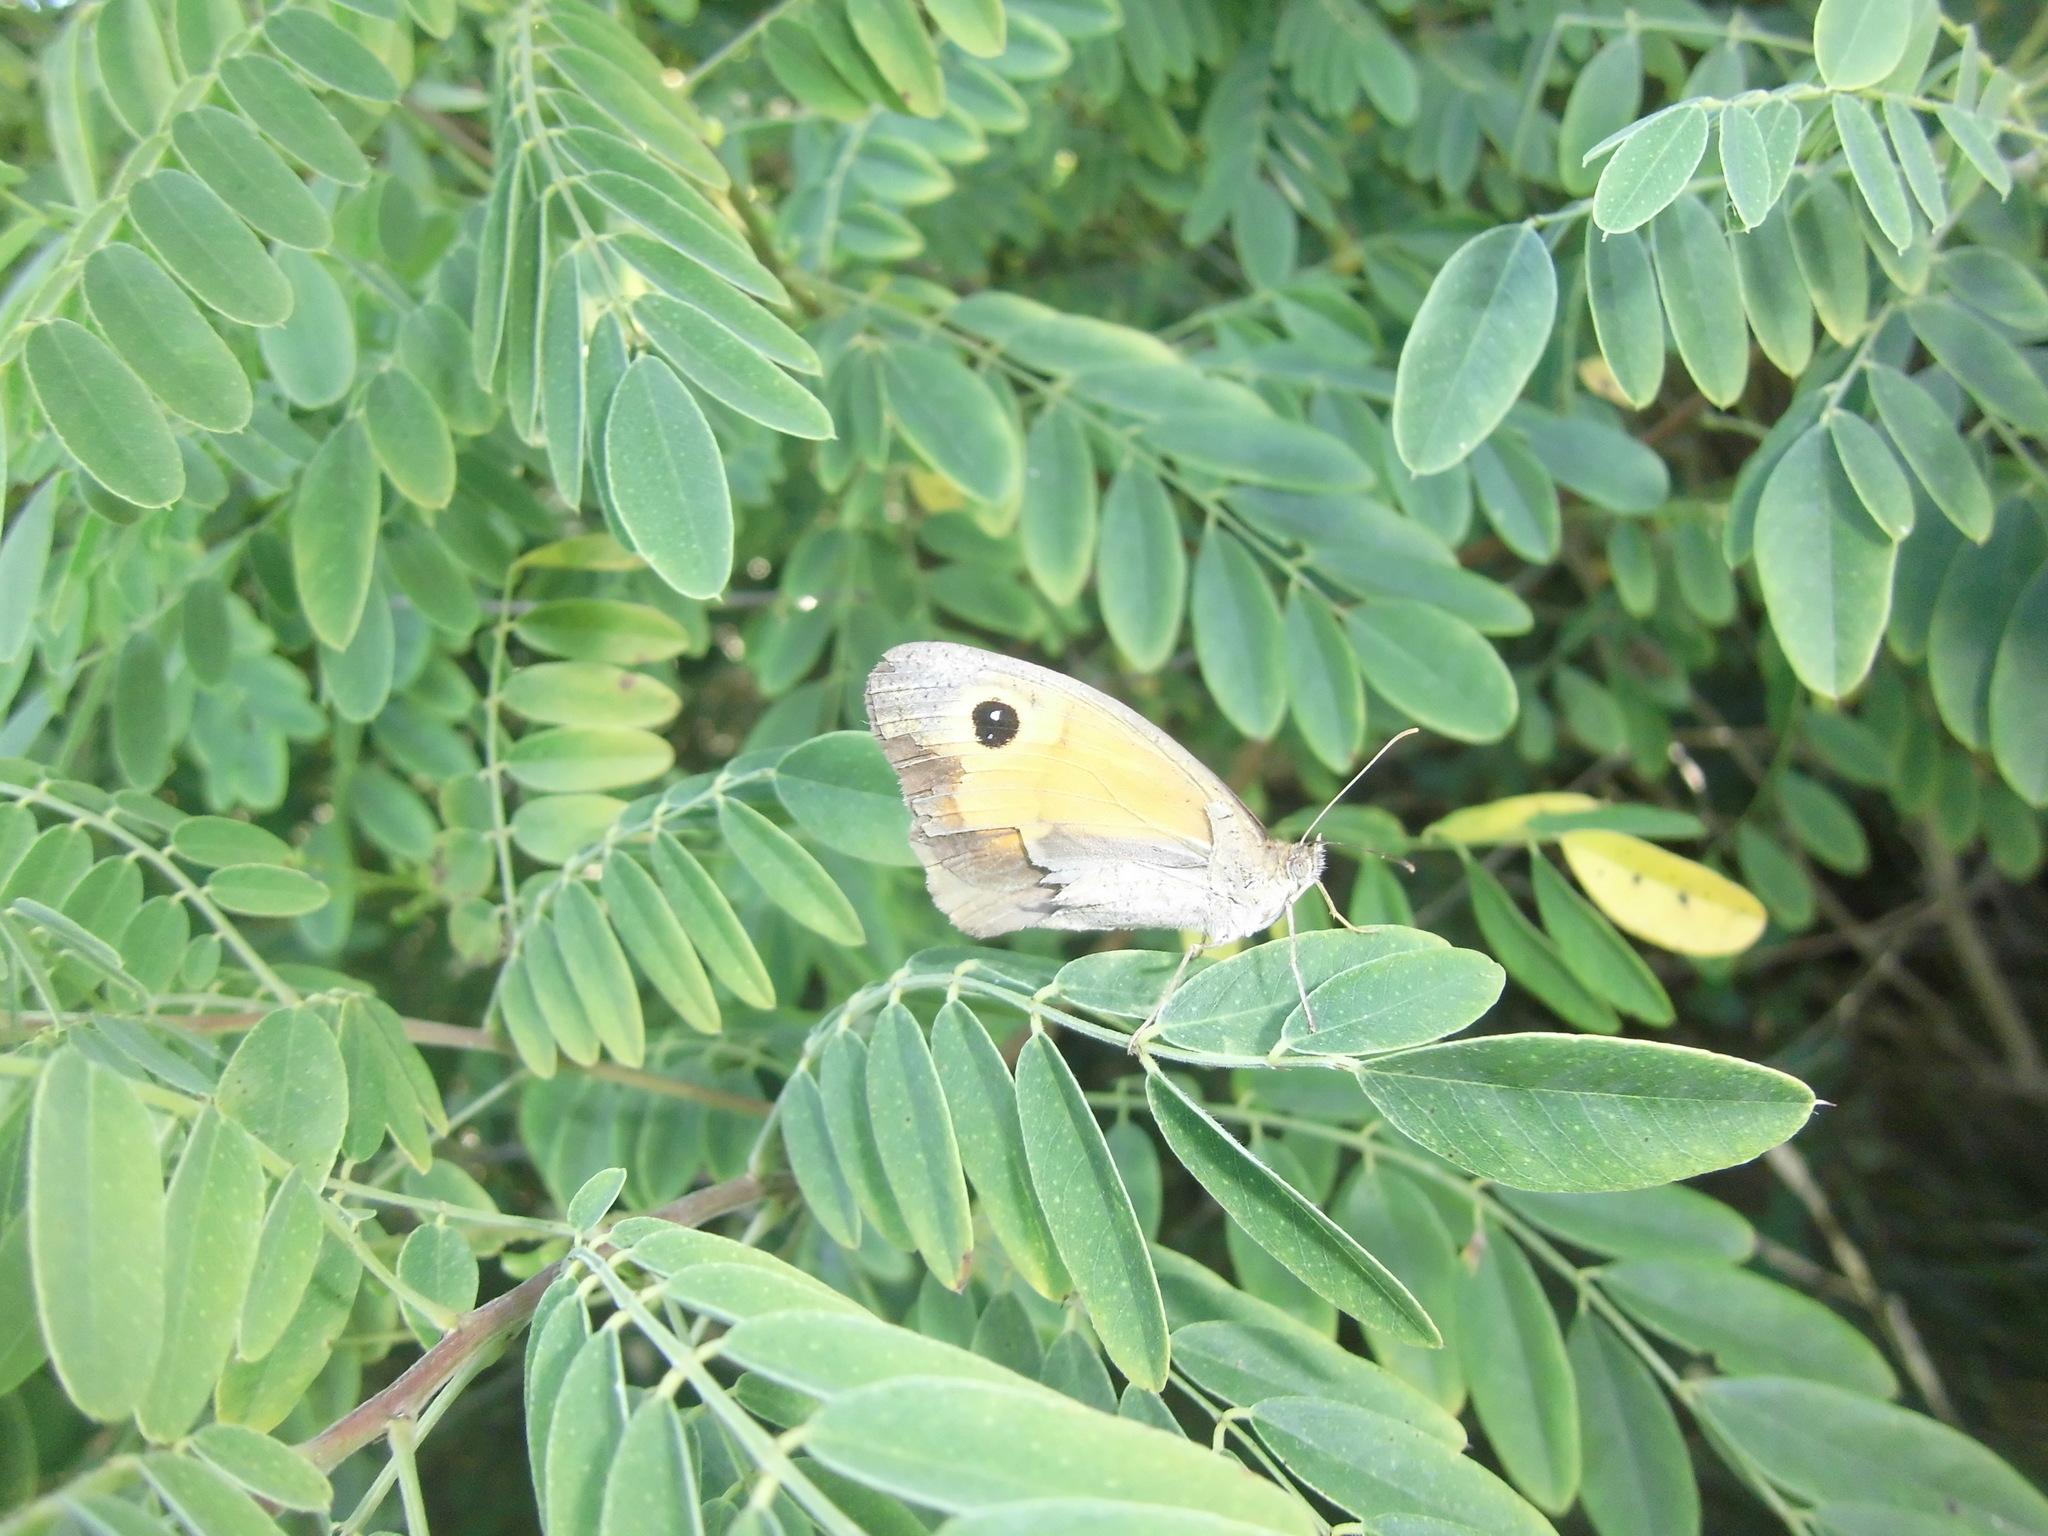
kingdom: Animalia
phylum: Arthropoda
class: Insecta
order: Lepidoptera
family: Nymphalidae
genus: Maniola
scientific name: Maniola jurtina
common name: Meadow brown
